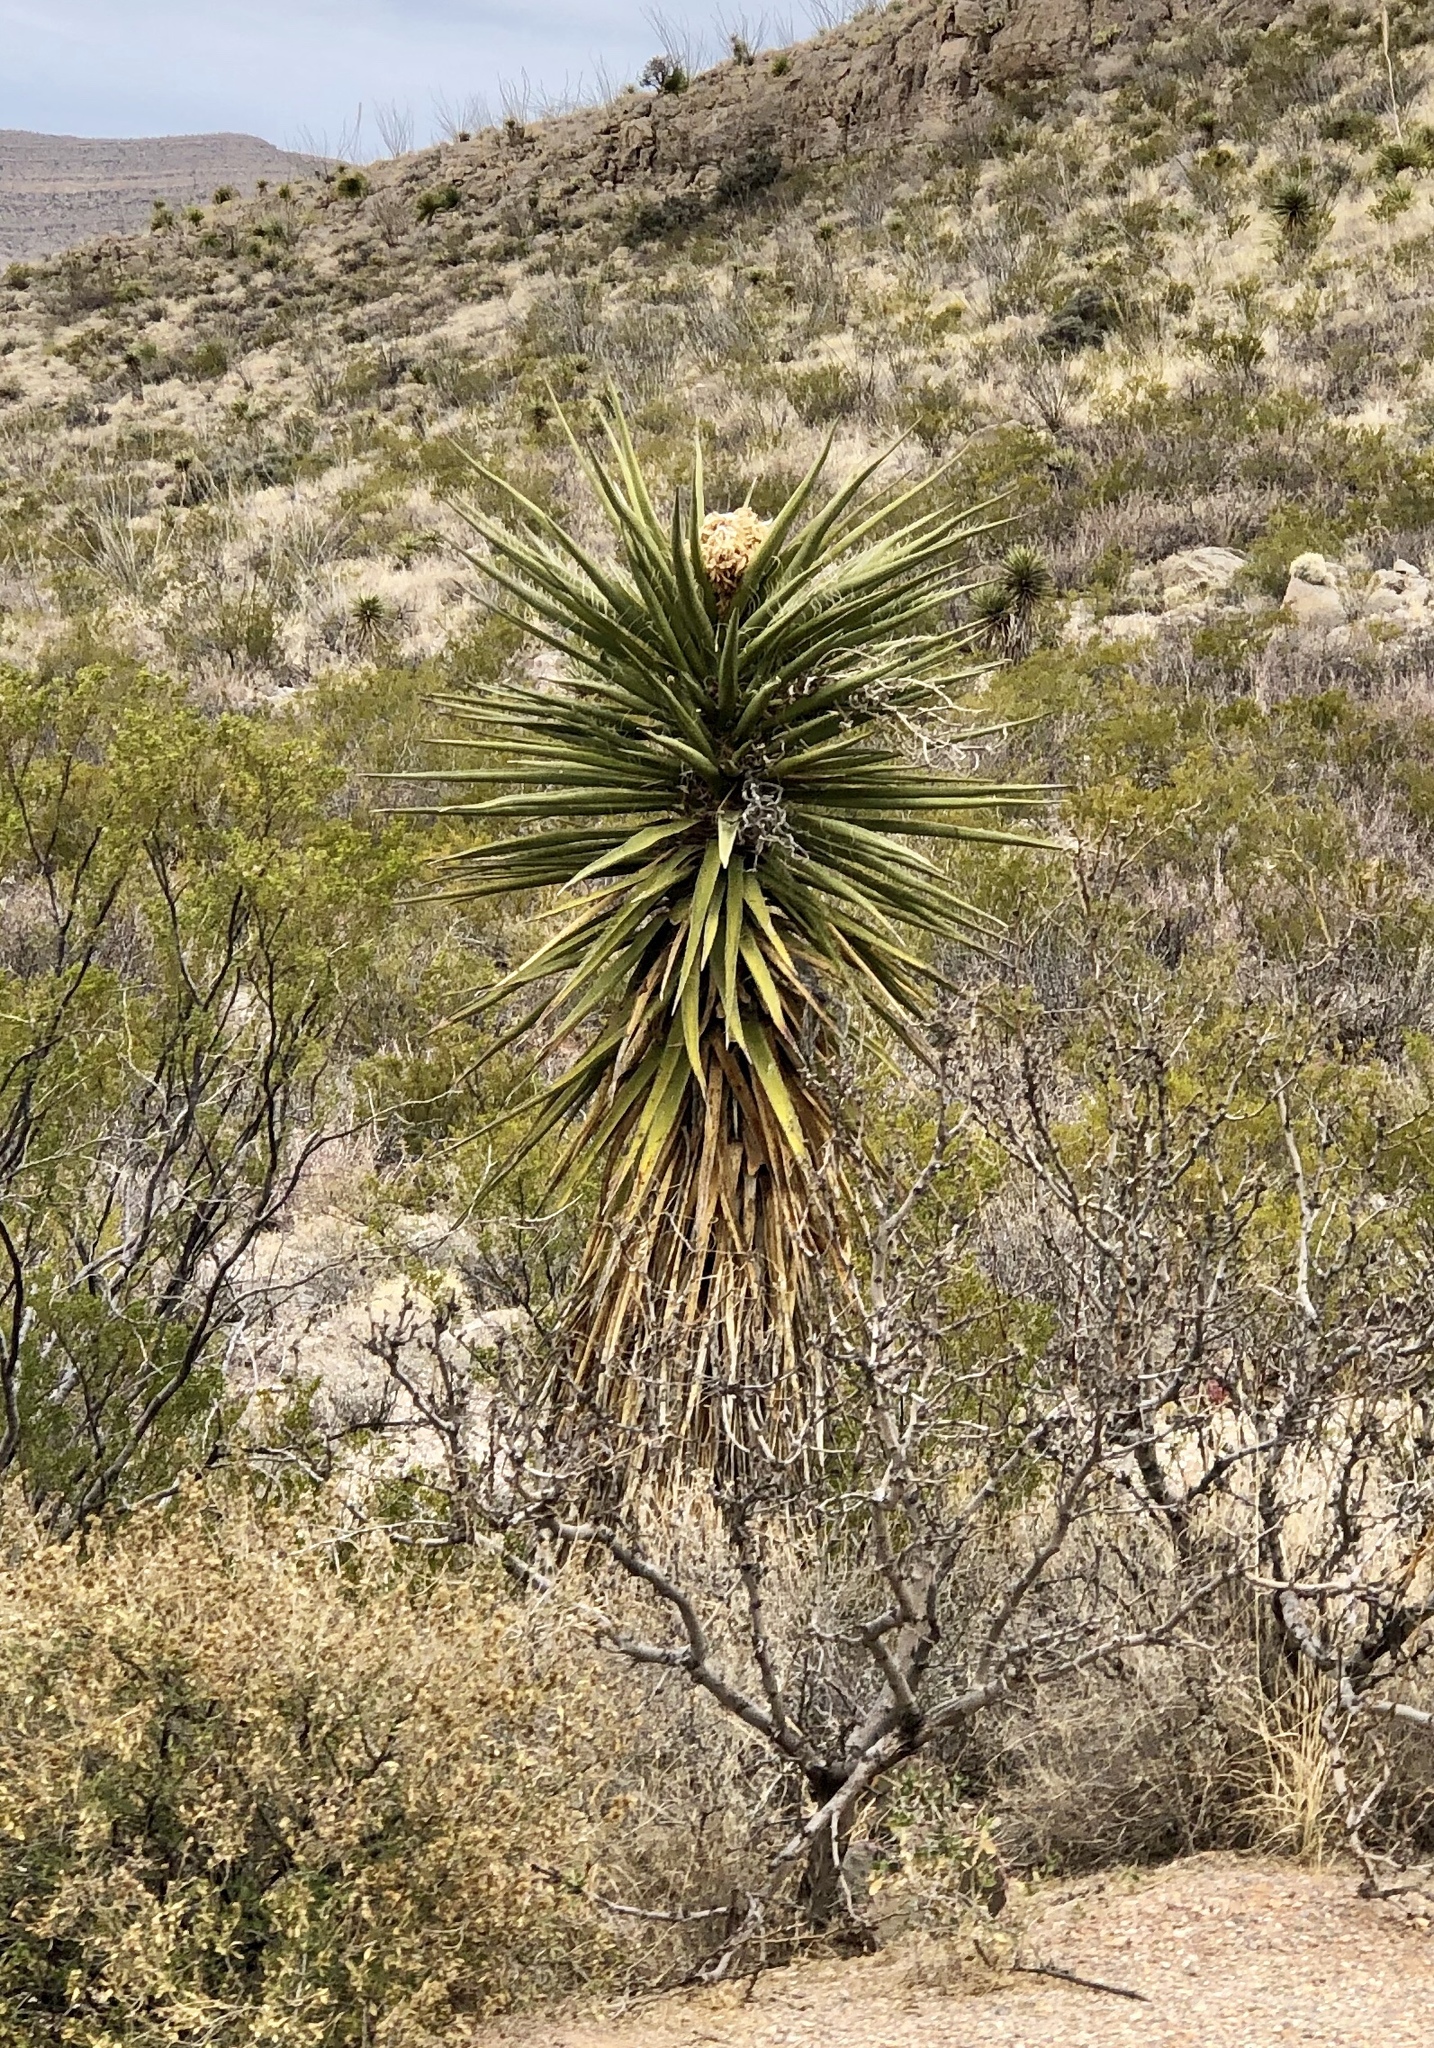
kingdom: Plantae
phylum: Tracheophyta
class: Liliopsida
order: Asparagales
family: Asparagaceae
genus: Yucca
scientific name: Yucca treculiana
